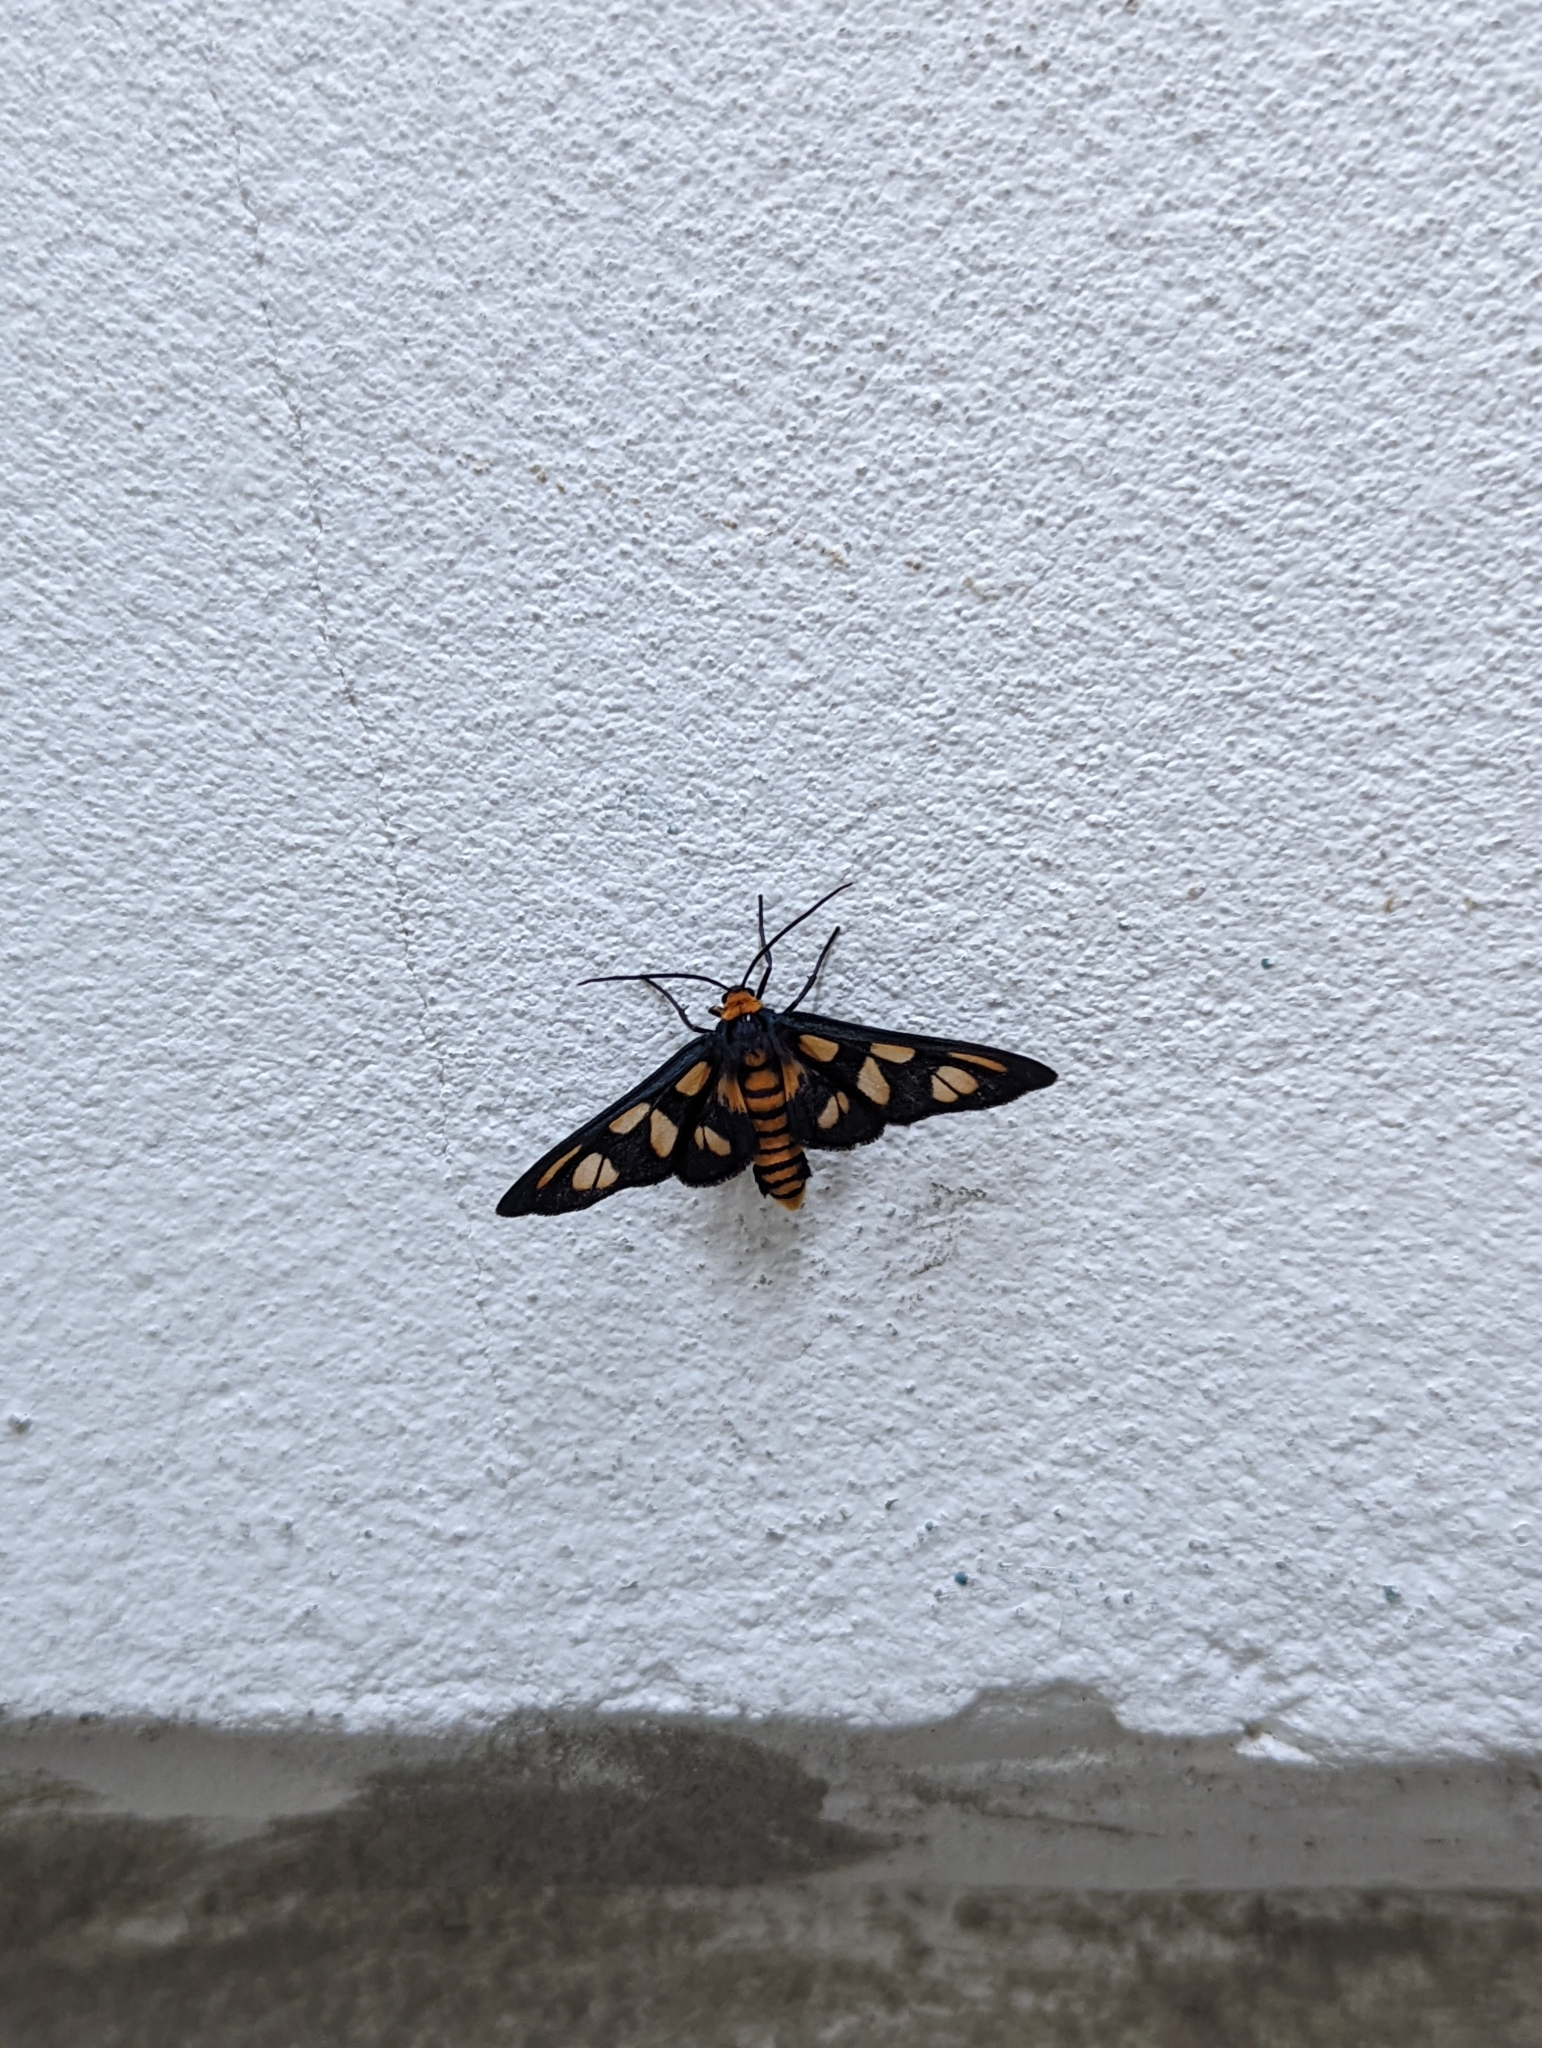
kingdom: Animalia
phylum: Arthropoda
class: Insecta
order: Lepidoptera
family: Erebidae
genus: Asura
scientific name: Asura lydia
